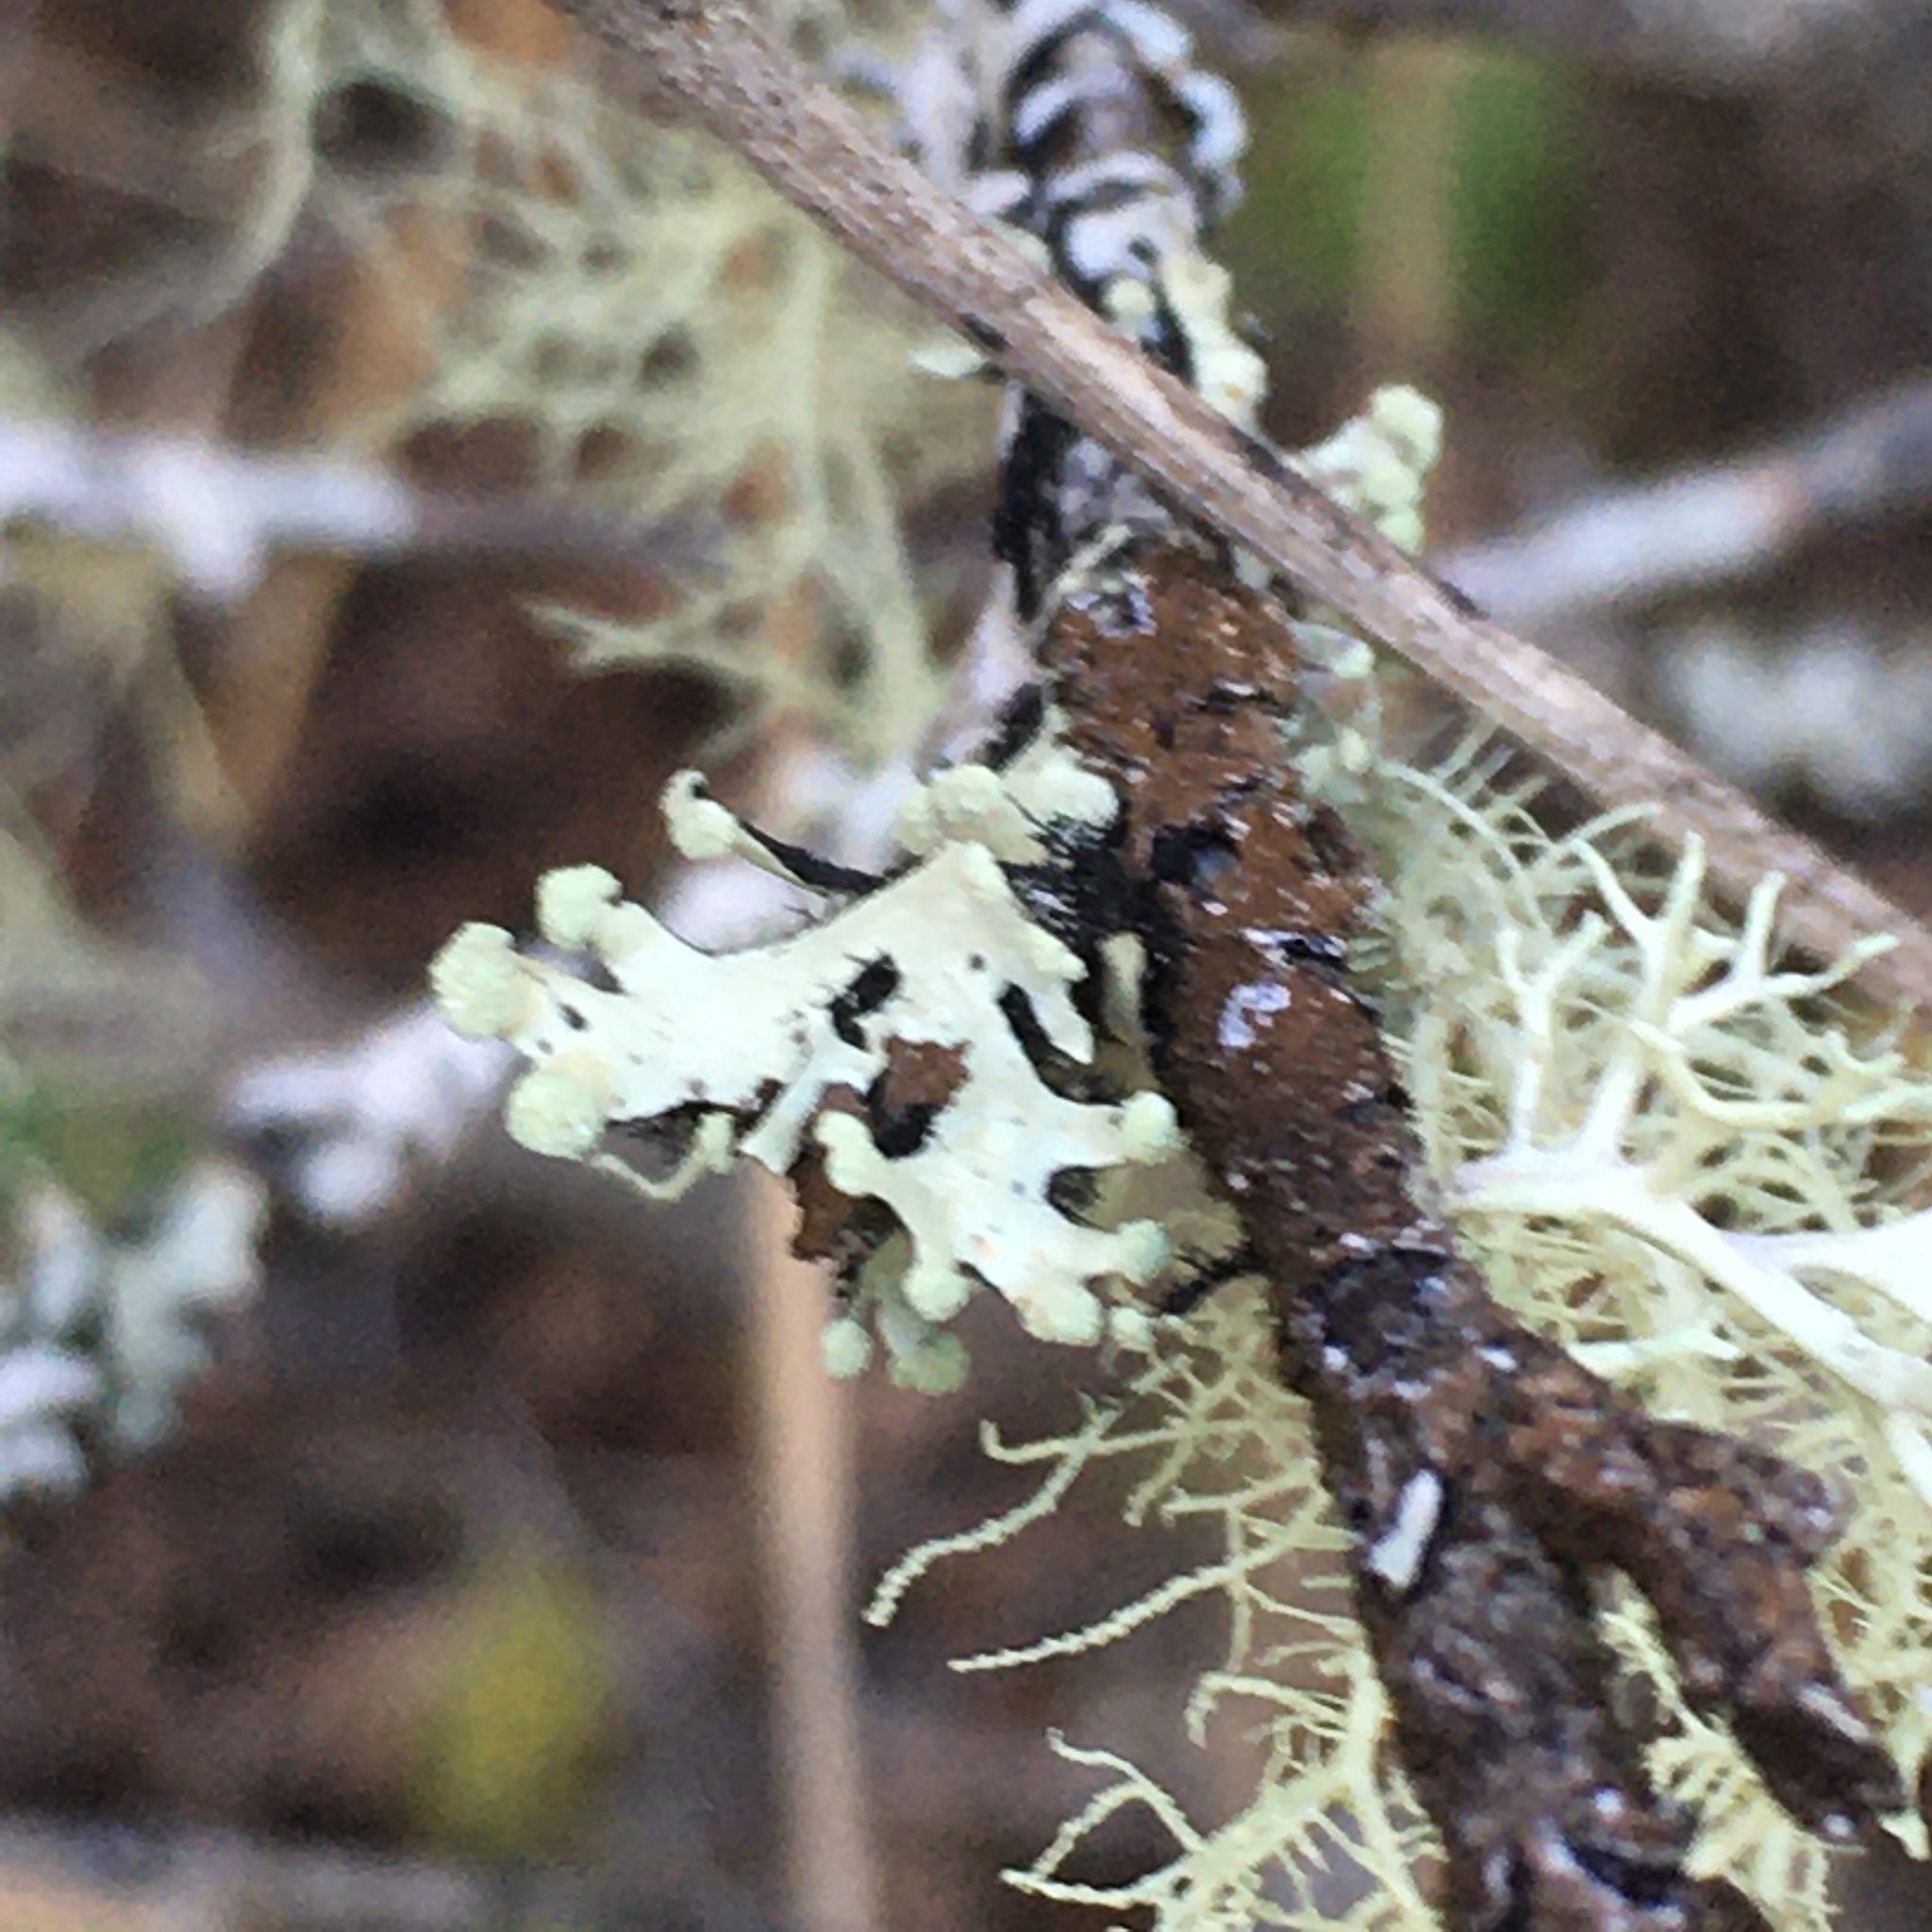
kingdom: Fungi
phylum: Ascomycota
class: Lecanoromycetes
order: Lecanorales
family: Parmeliaceae
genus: Hypotrachyna
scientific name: Hypotrachyna sinuosa
